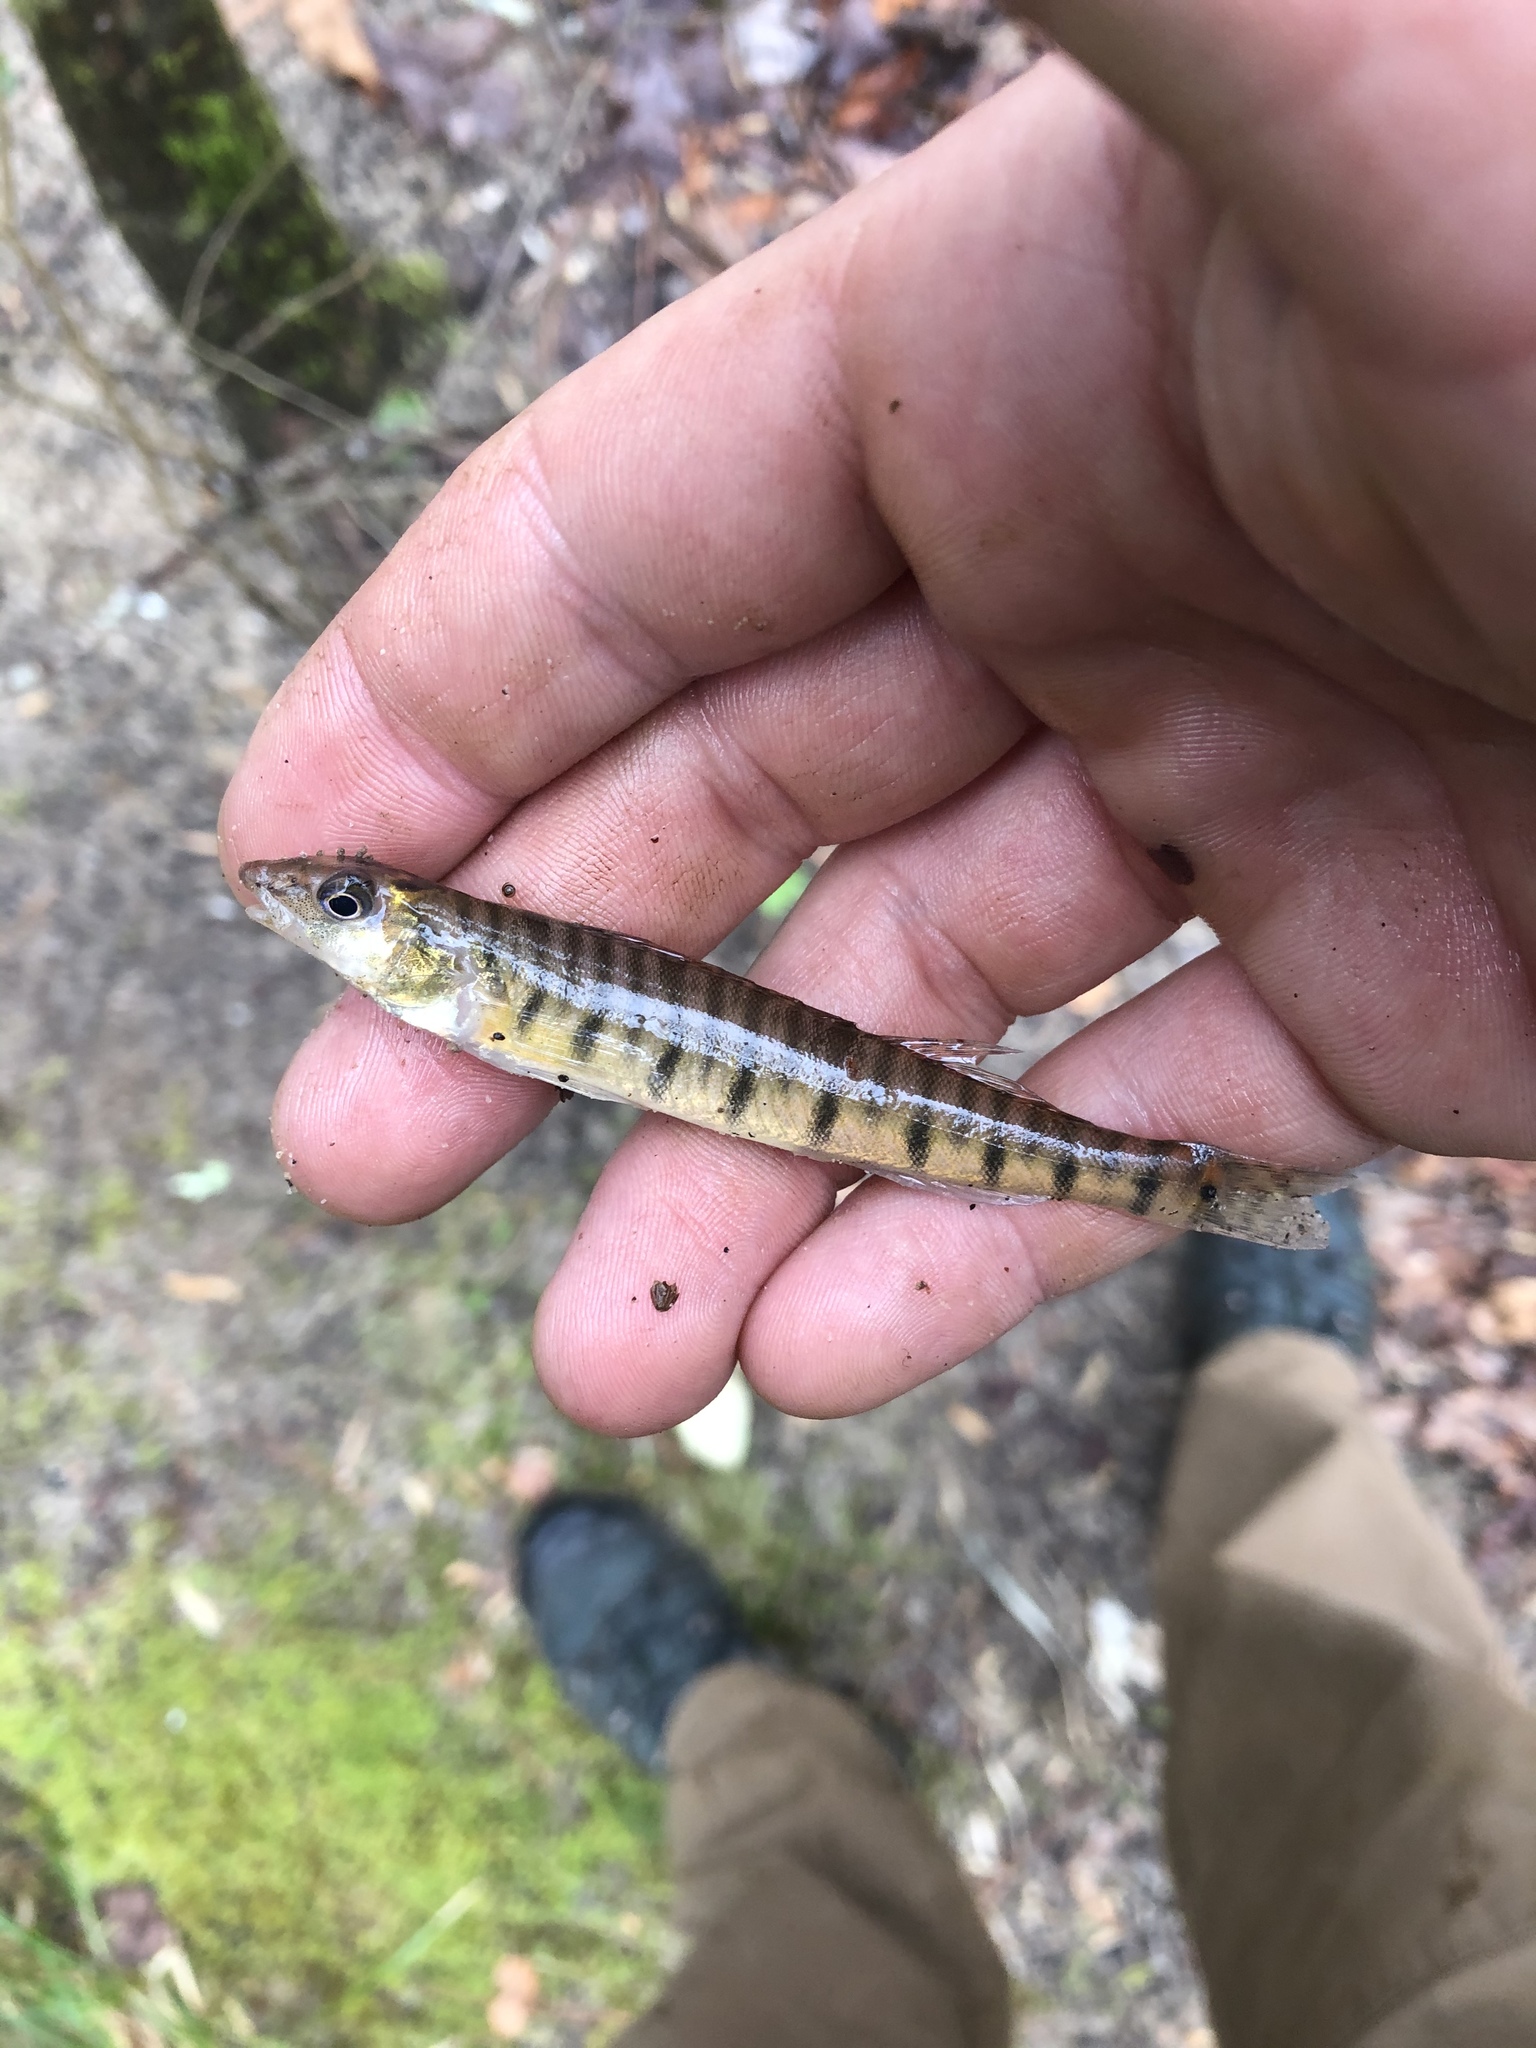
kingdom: Animalia
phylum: Chordata
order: Perciformes
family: Percidae
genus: Percina
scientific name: Percina kathae
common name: Mobile logperch
